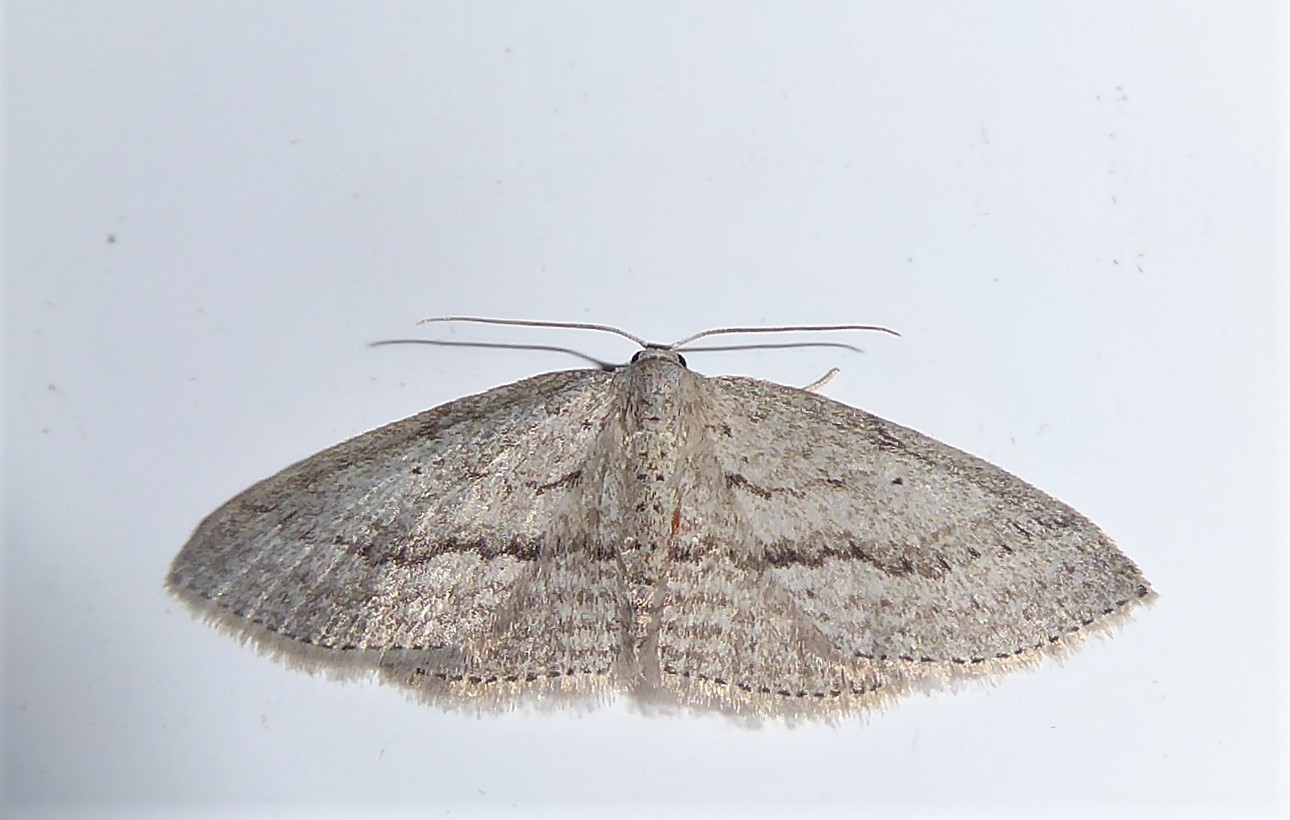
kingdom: Animalia
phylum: Arthropoda
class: Insecta
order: Lepidoptera
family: Geometridae
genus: Poecilasthena
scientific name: Poecilasthena schistaria
